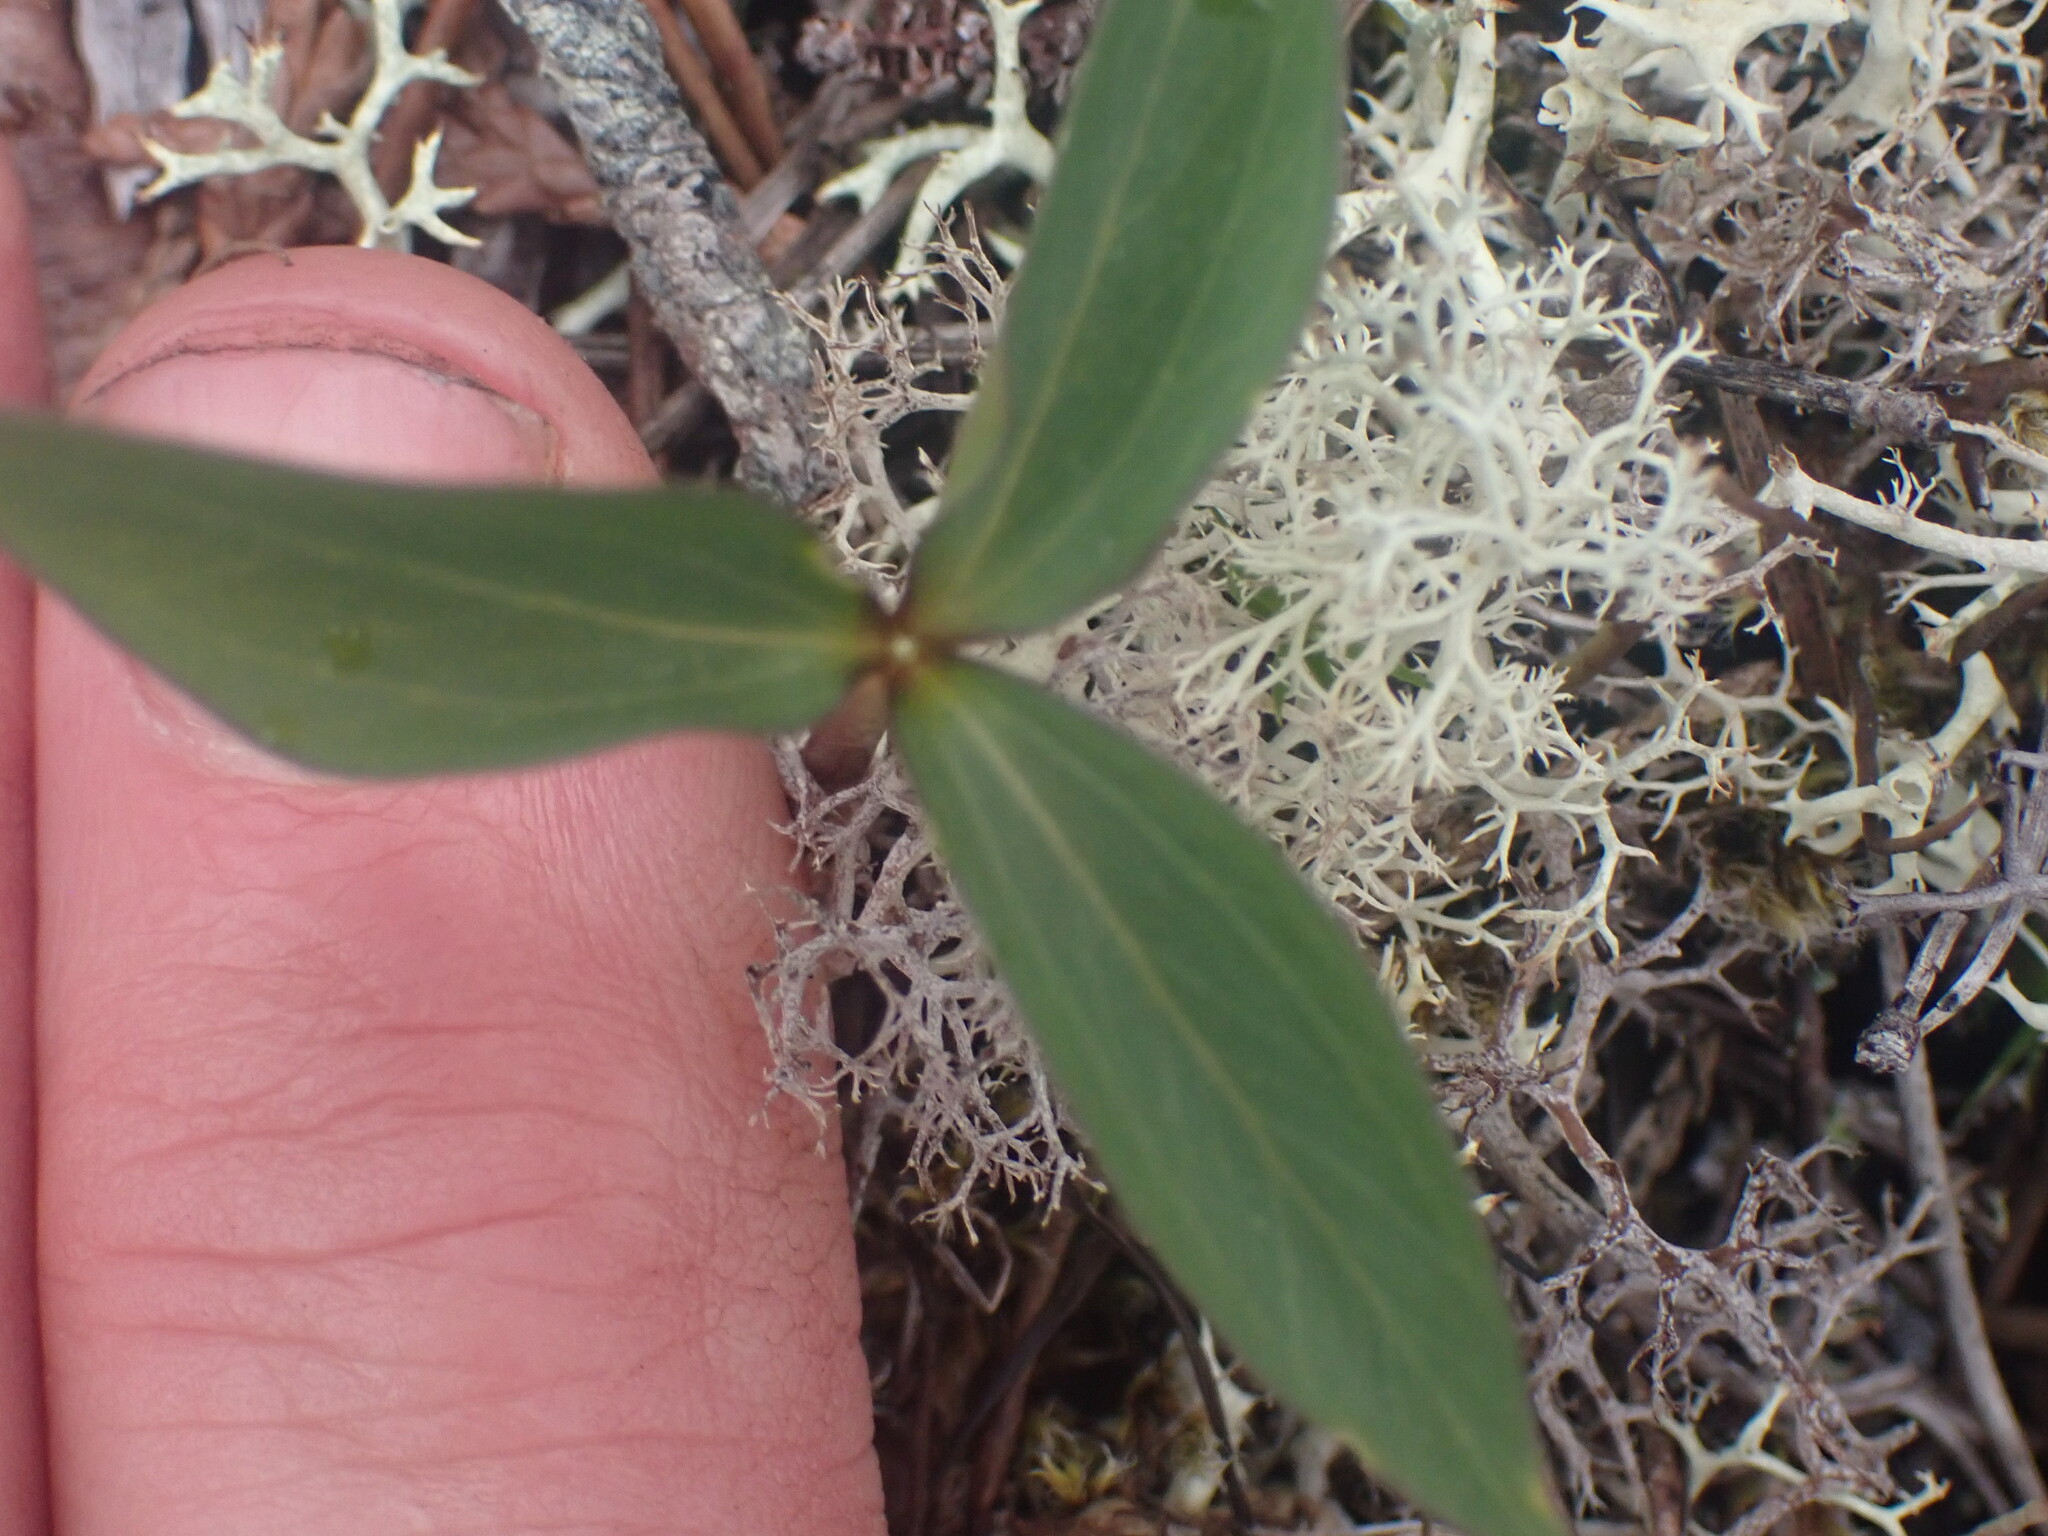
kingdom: Plantae
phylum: Tracheophyta
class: Liliopsida
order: Liliales
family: Melanthiaceae
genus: Trillium
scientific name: Trillium hibbersonii
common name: Hibberson's trillium
